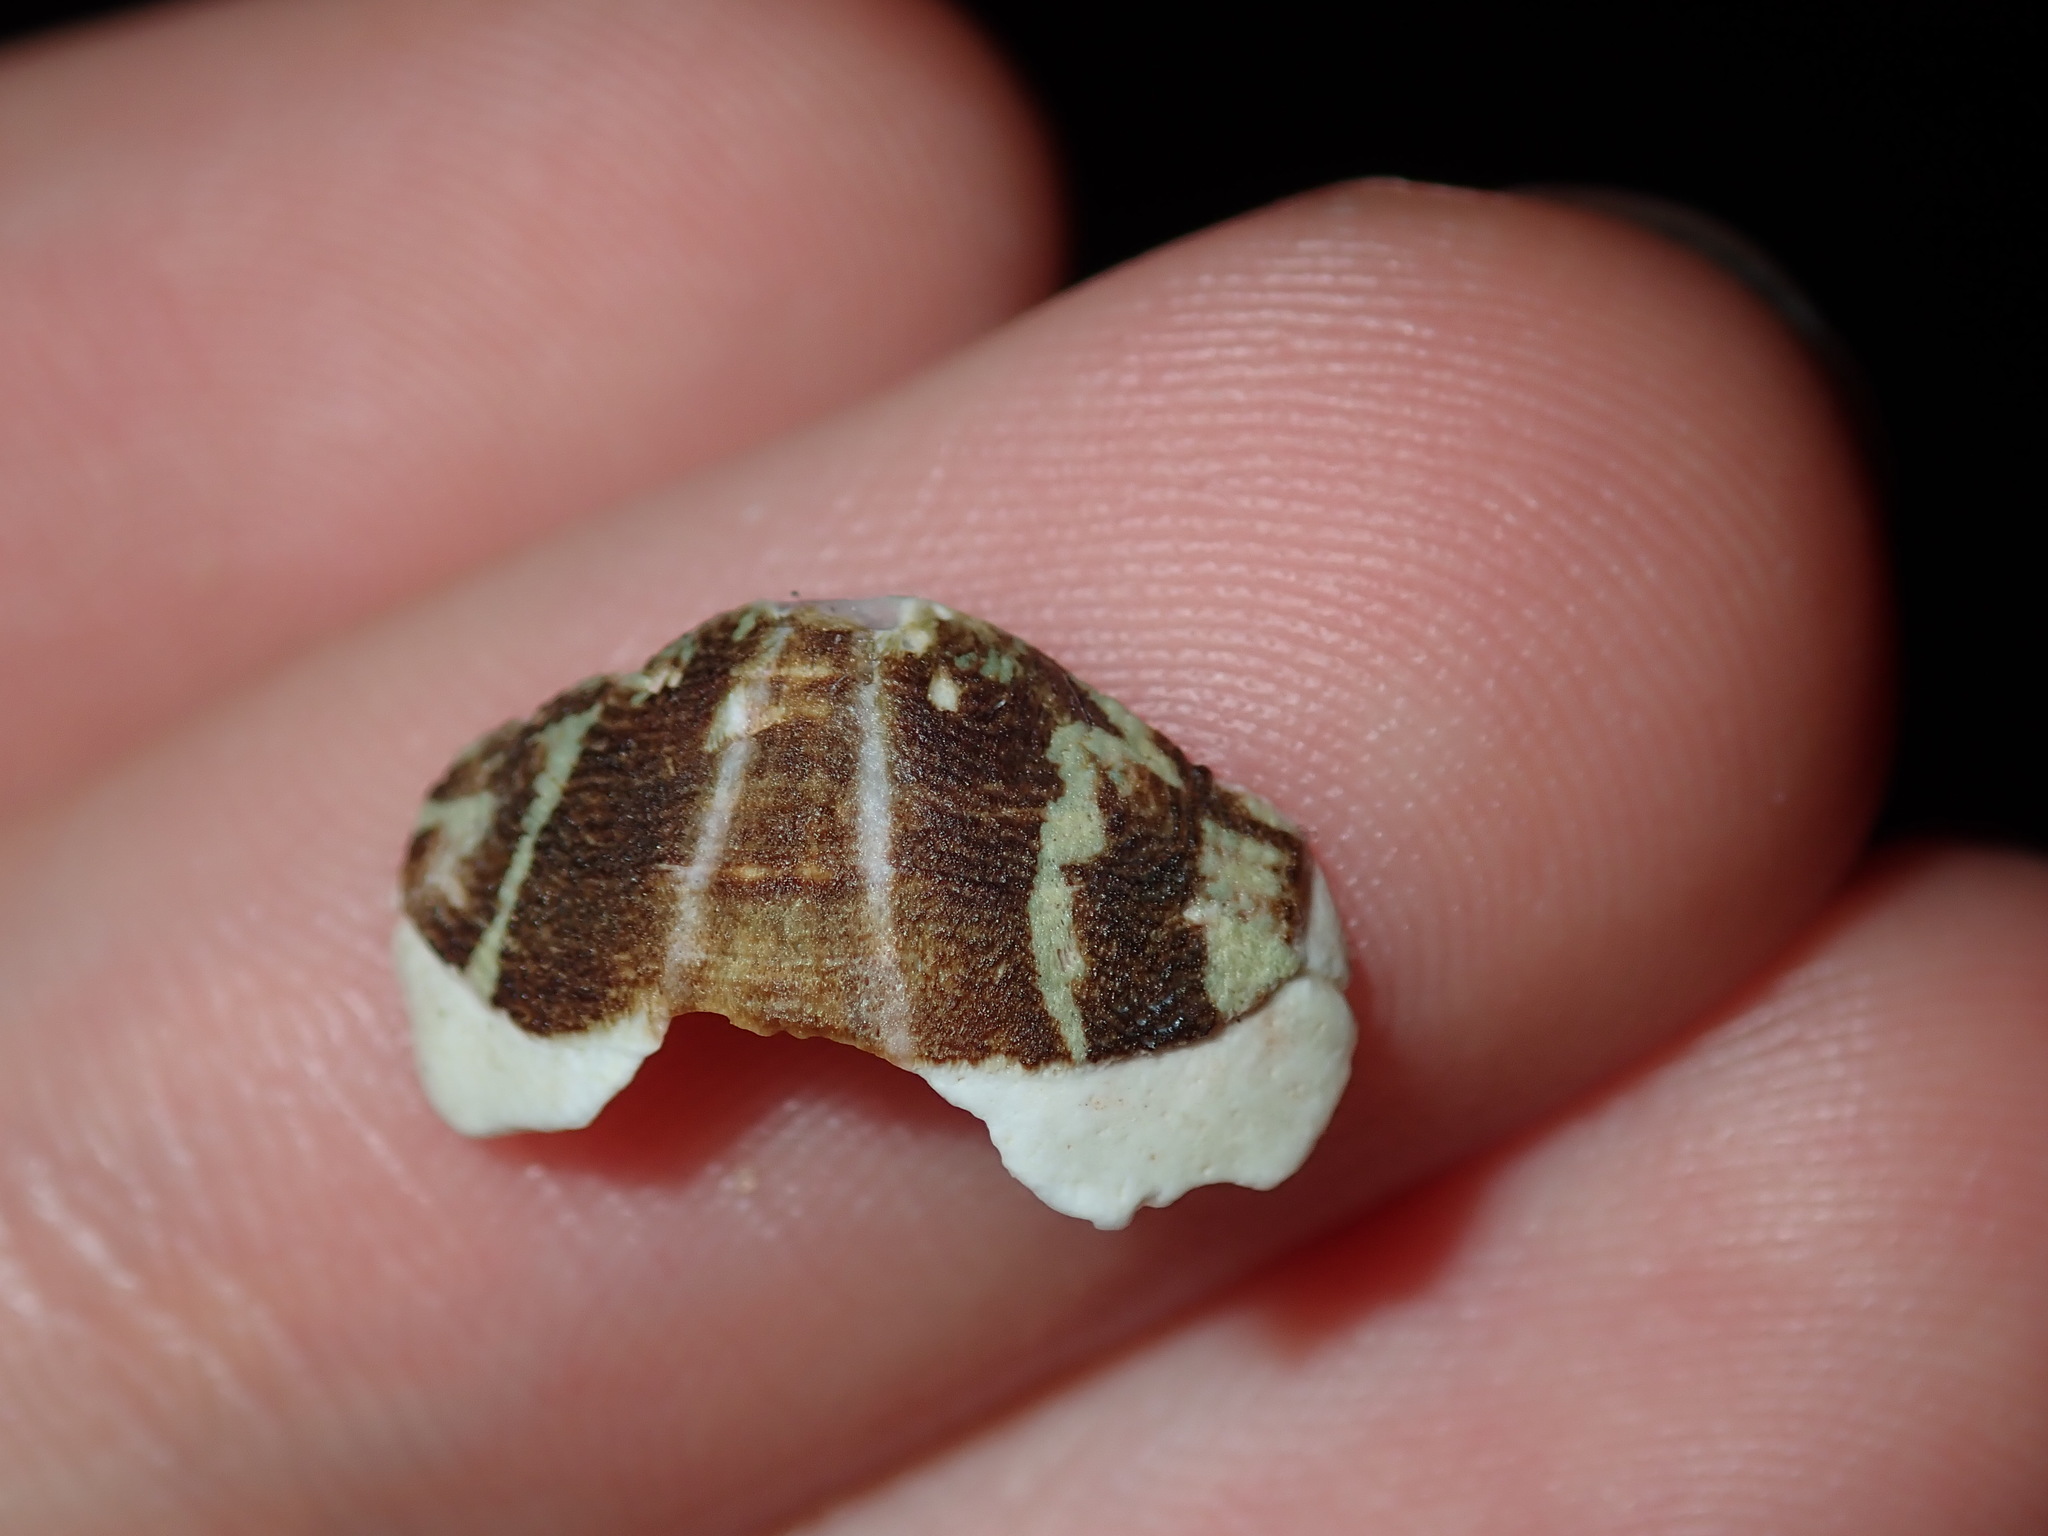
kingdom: Animalia
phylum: Mollusca
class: Polyplacophora
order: Chitonida
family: Mopaliidae
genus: Plaxiphora
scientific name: Plaxiphora albida
